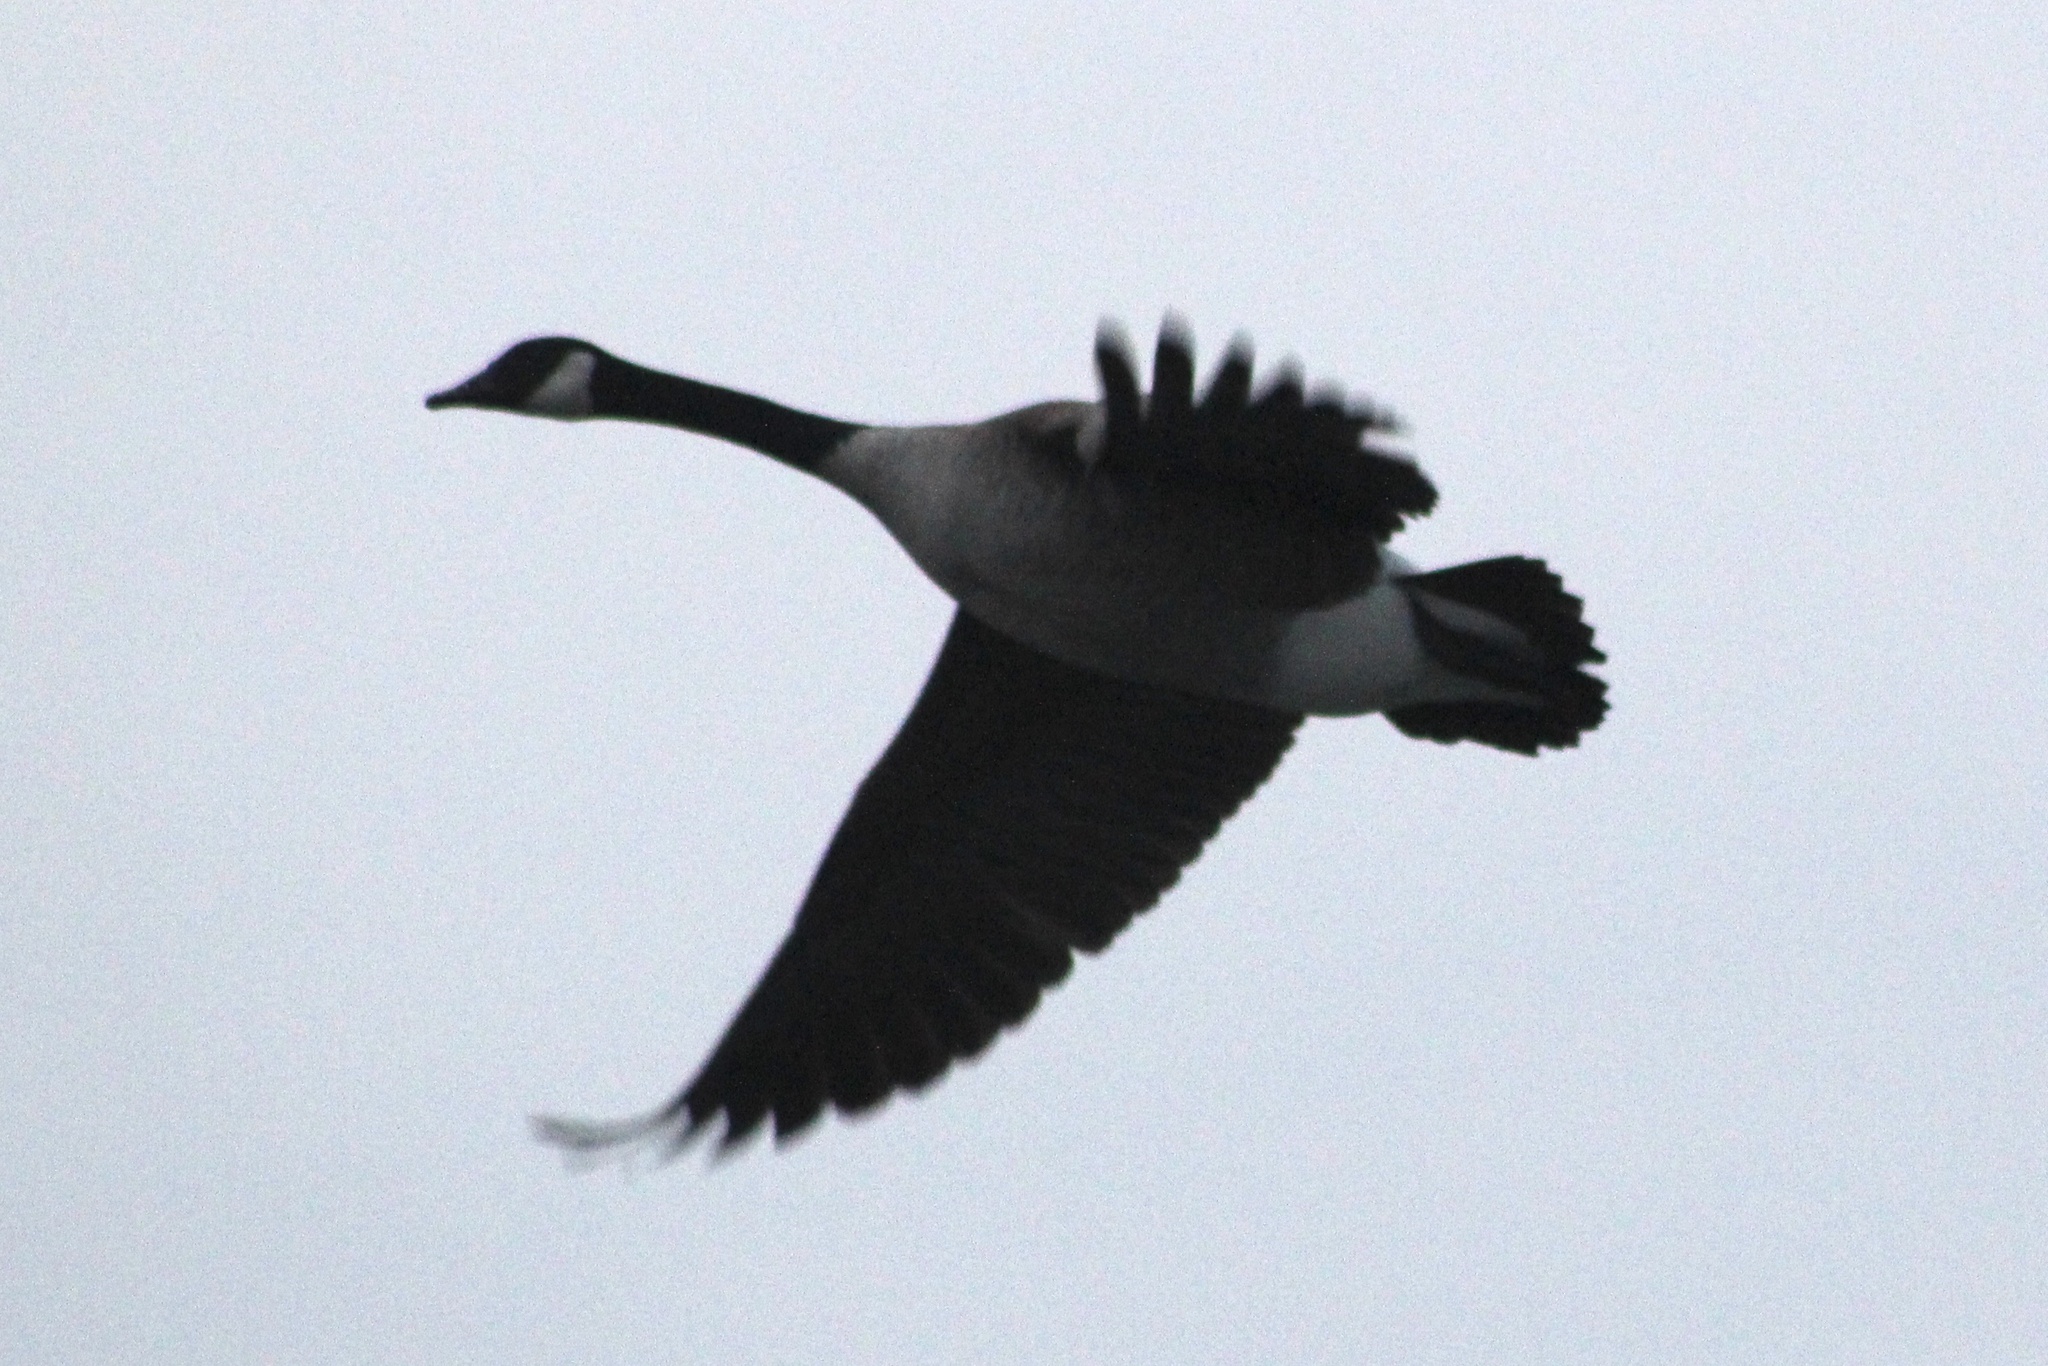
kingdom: Animalia
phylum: Chordata
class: Aves
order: Anseriformes
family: Anatidae
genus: Branta
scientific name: Branta canadensis
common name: Canada goose
